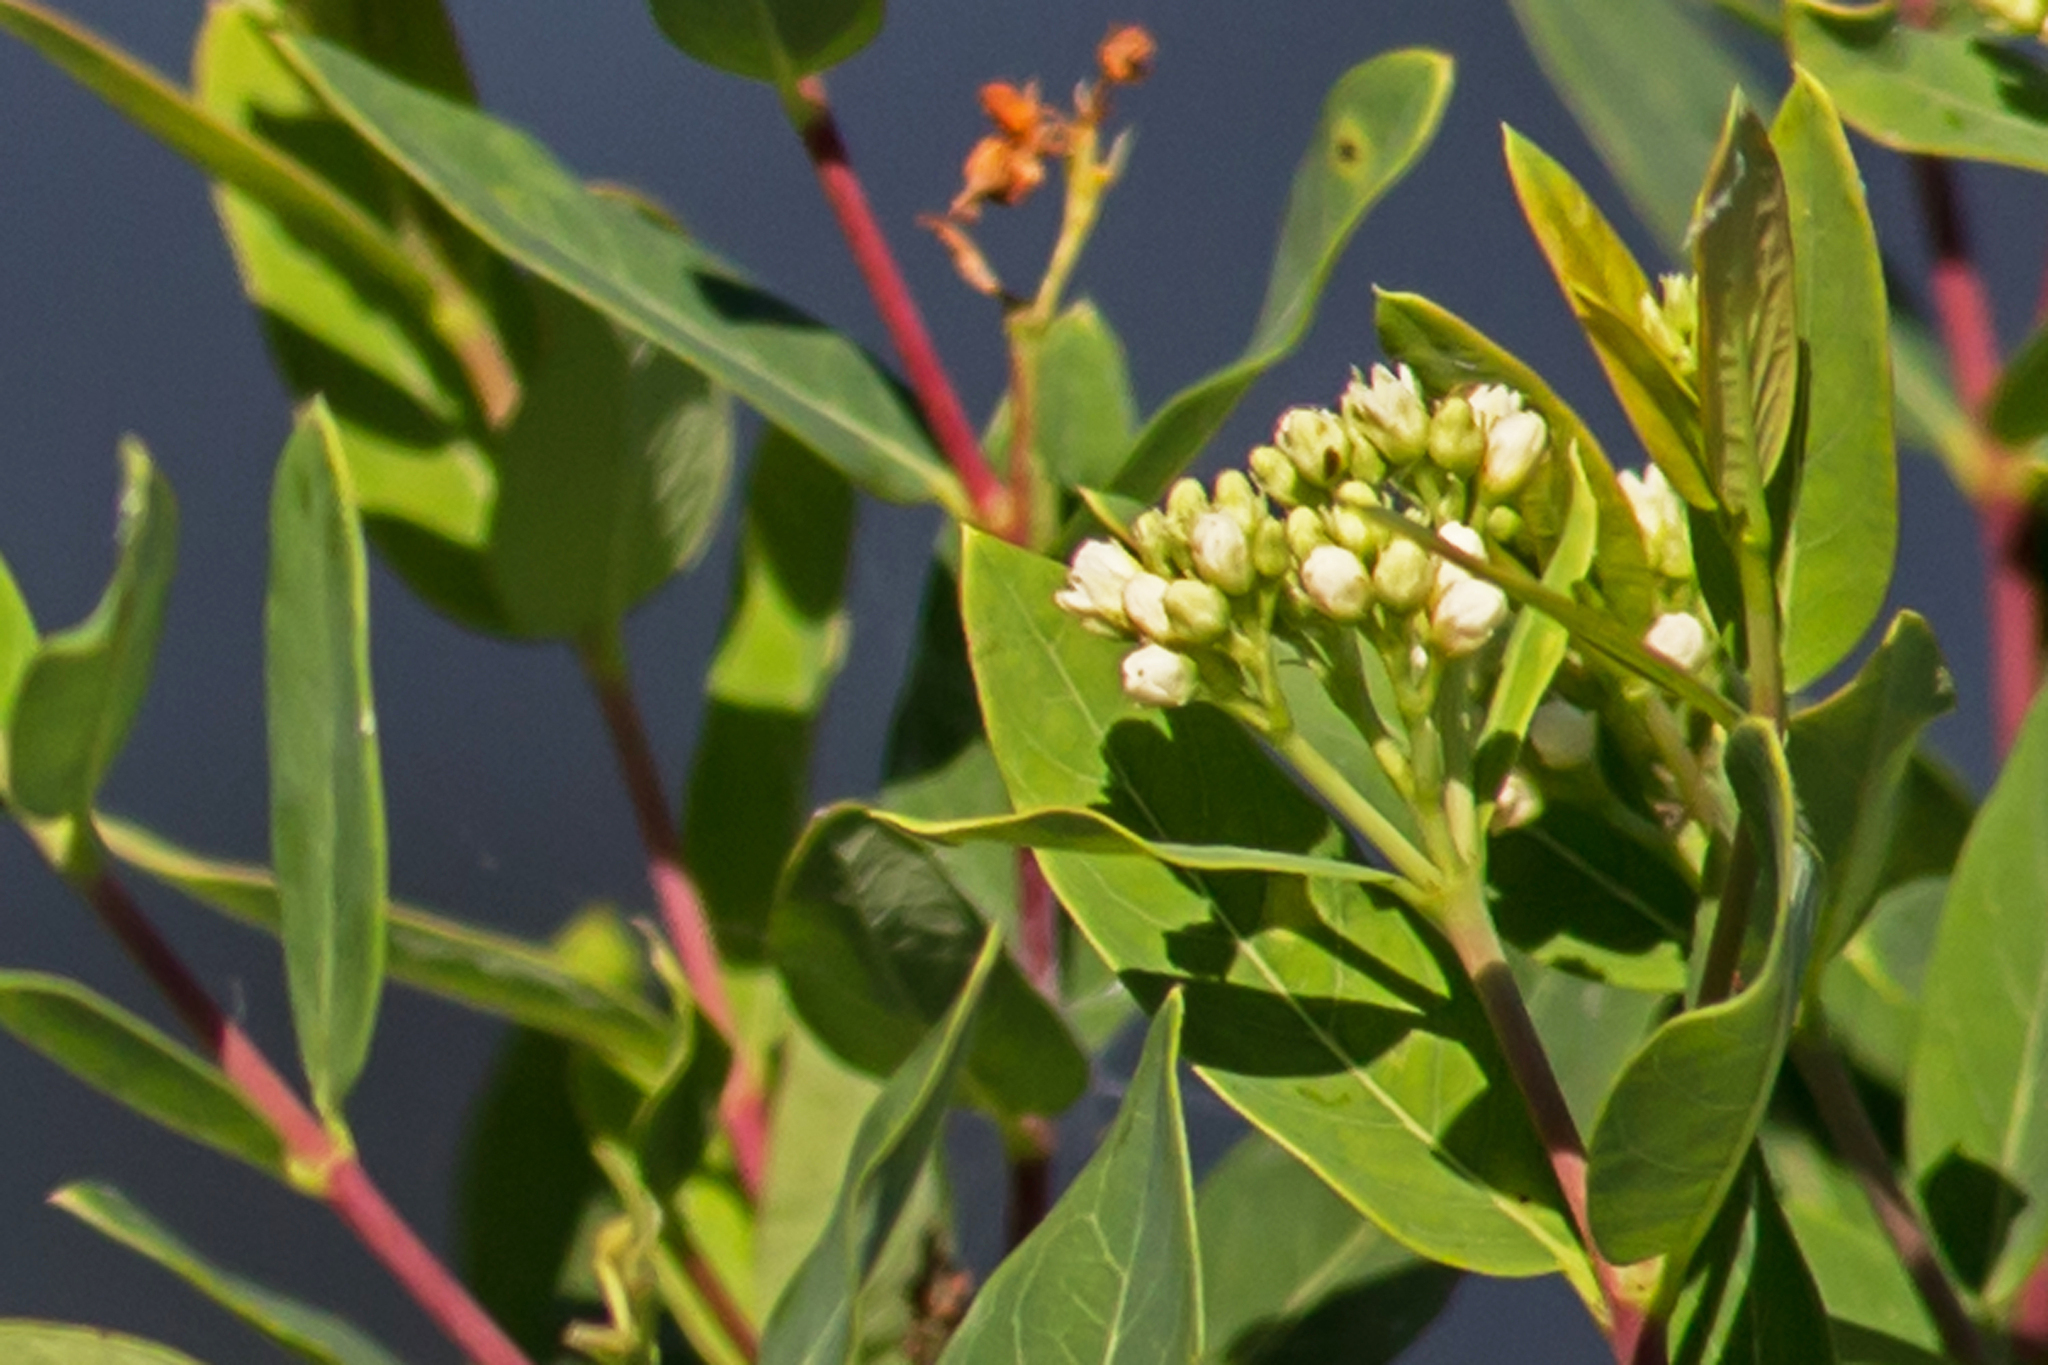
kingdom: Plantae
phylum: Tracheophyta
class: Magnoliopsida
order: Gentianales
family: Apocynaceae
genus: Apocynum
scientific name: Apocynum cannabinum
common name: Hemp dogbane
